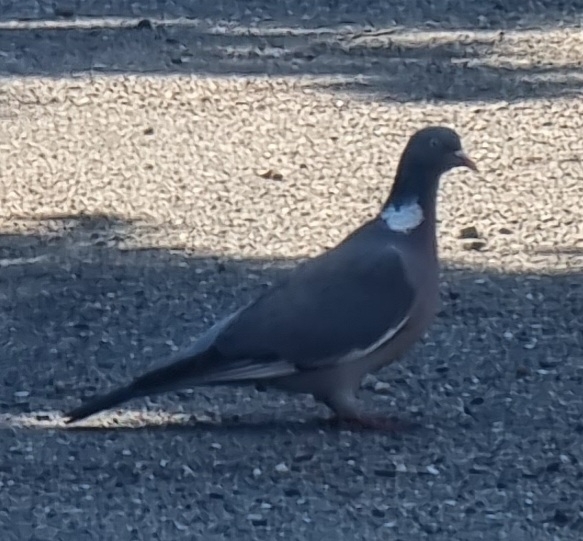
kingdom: Animalia
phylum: Chordata
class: Aves
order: Columbiformes
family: Columbidae
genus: Columba
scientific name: Columba palumbus
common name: Common wood pigeon
